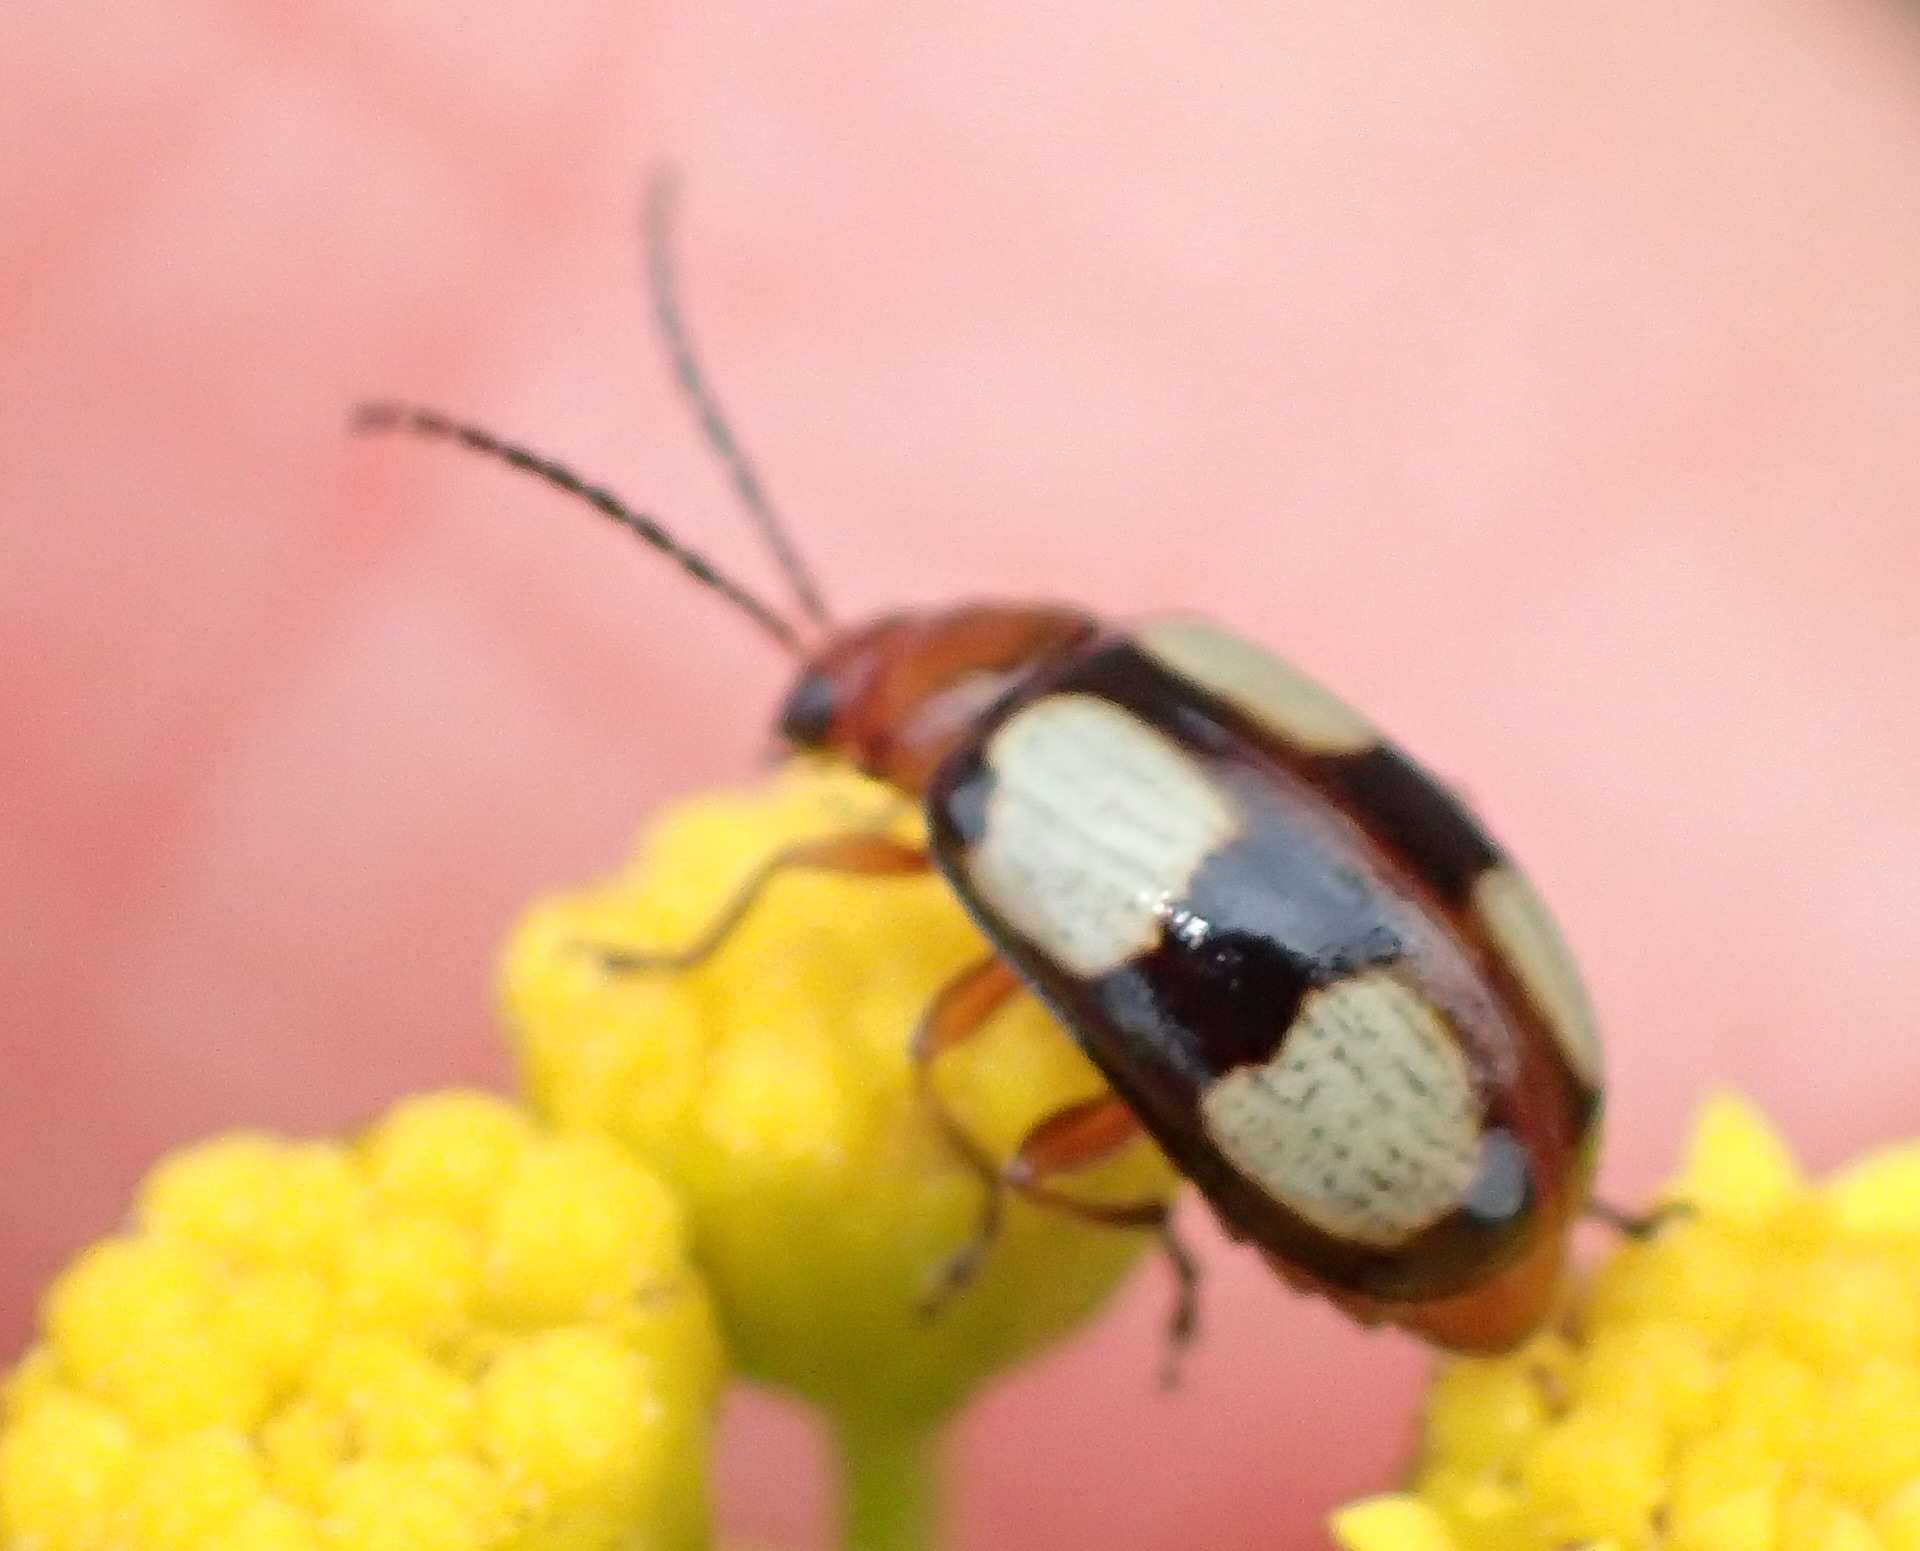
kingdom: Animalia
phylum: Arthropoda
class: Insecta
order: Coleoptera
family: Chrysomelidae
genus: Monolepta
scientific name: Monolepta
